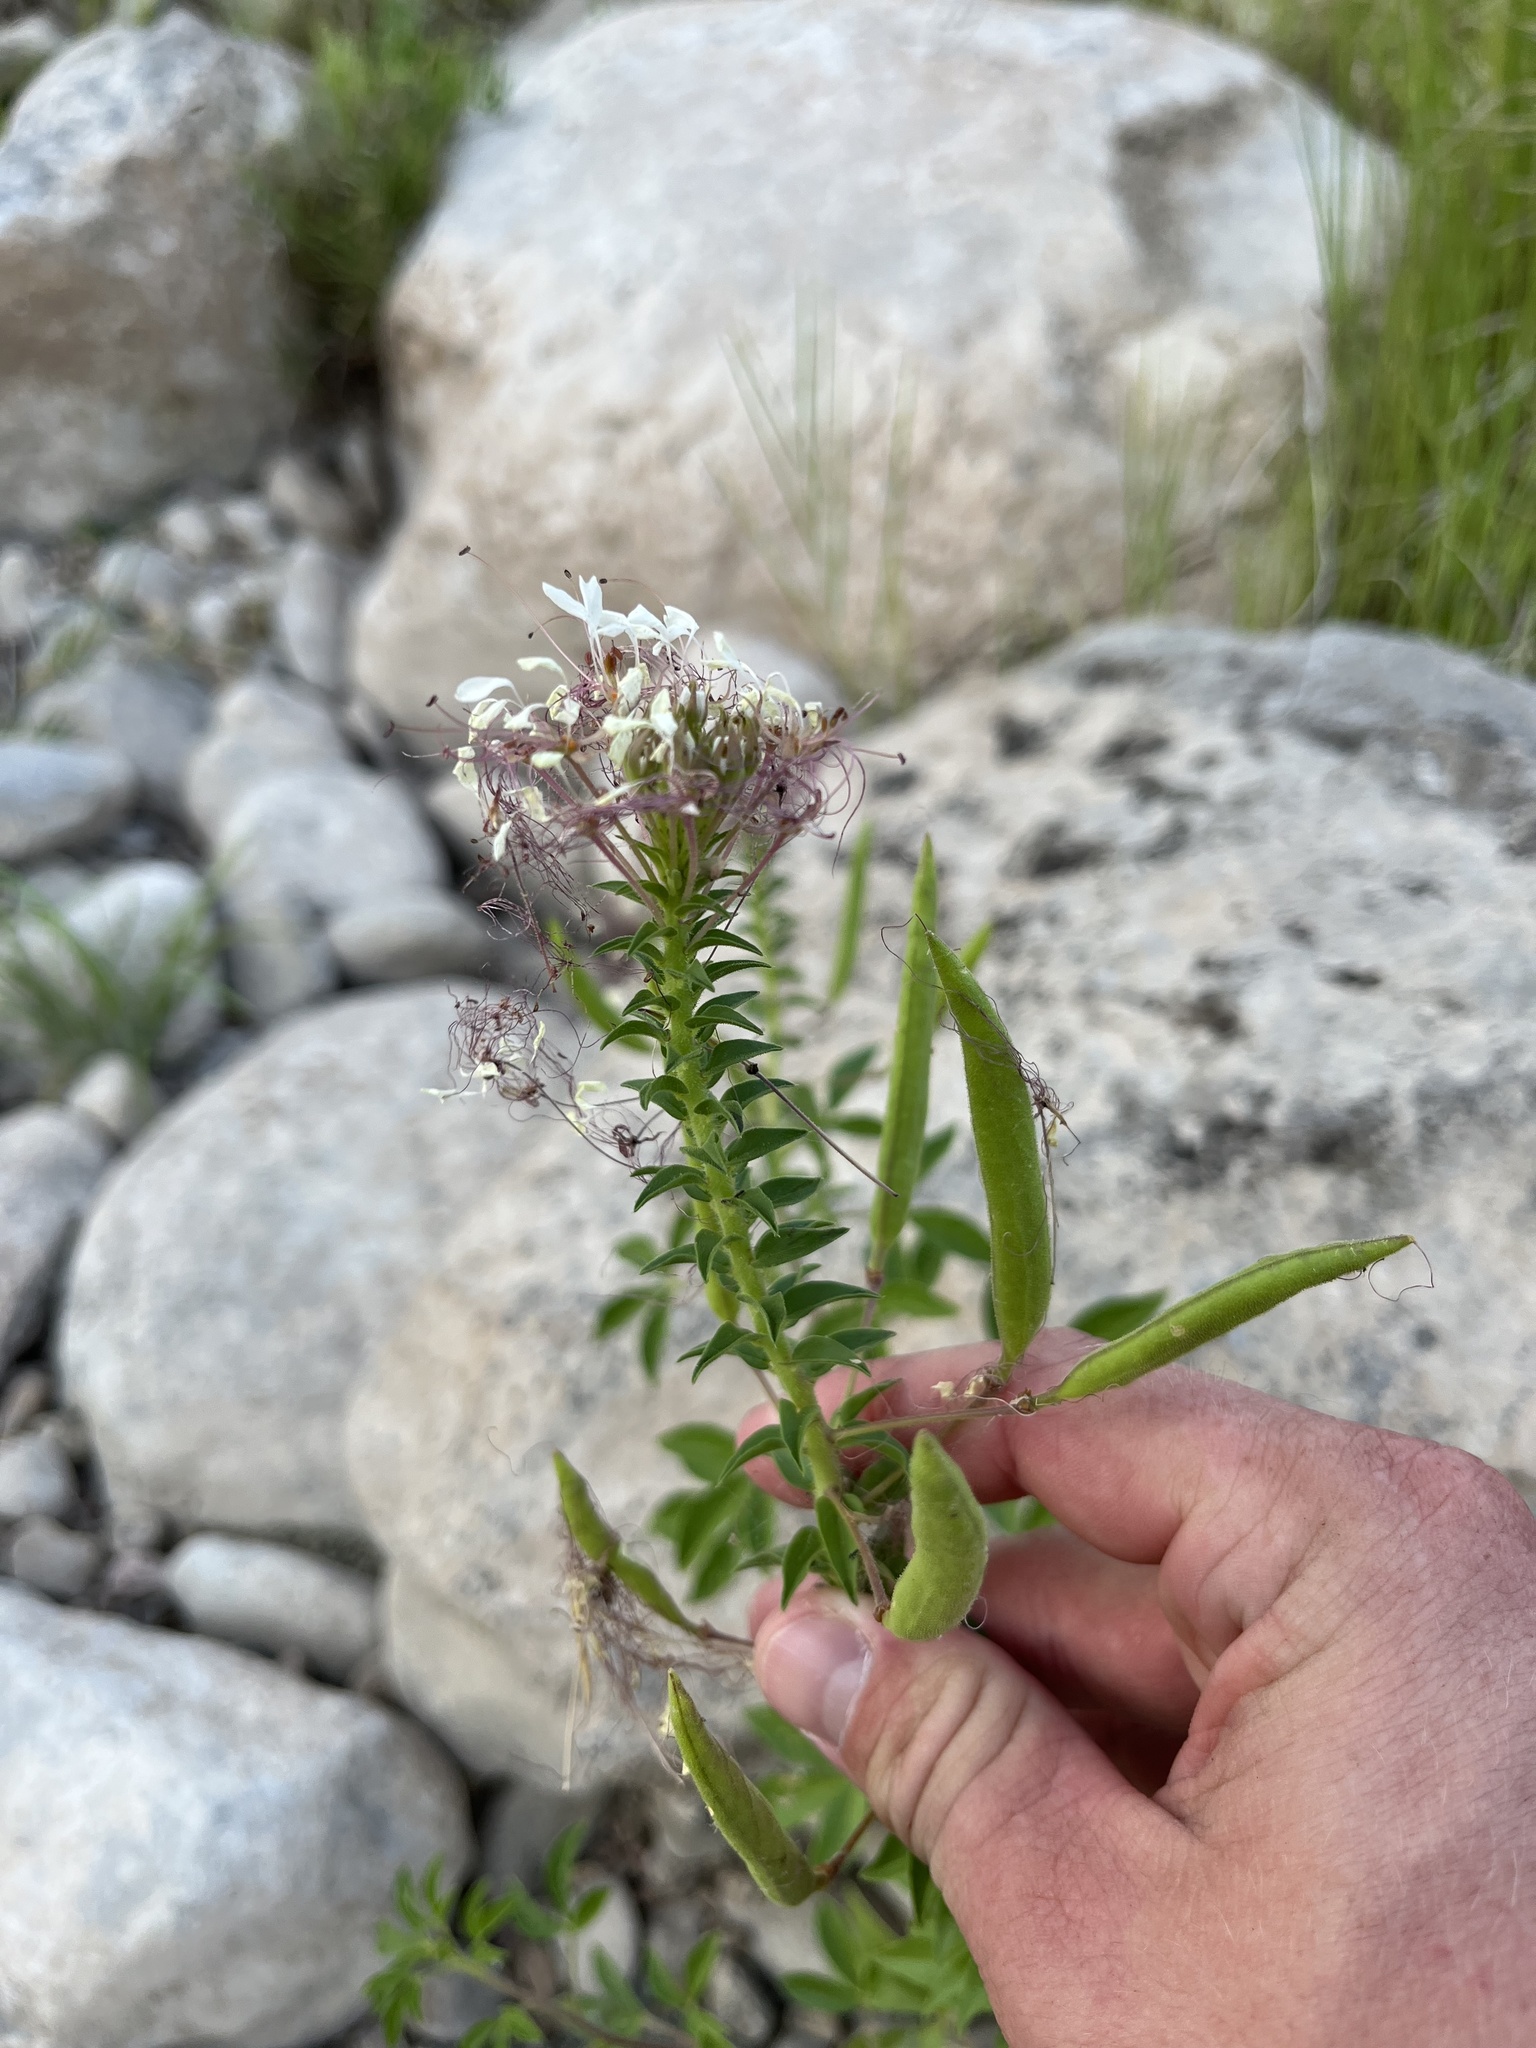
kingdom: Plantae
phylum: Tracheophyta
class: Magnoliopsida
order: Brassicales
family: Cleomaceae
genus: Polanisia
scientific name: Polanisia dodecandra
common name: Clammyweed
